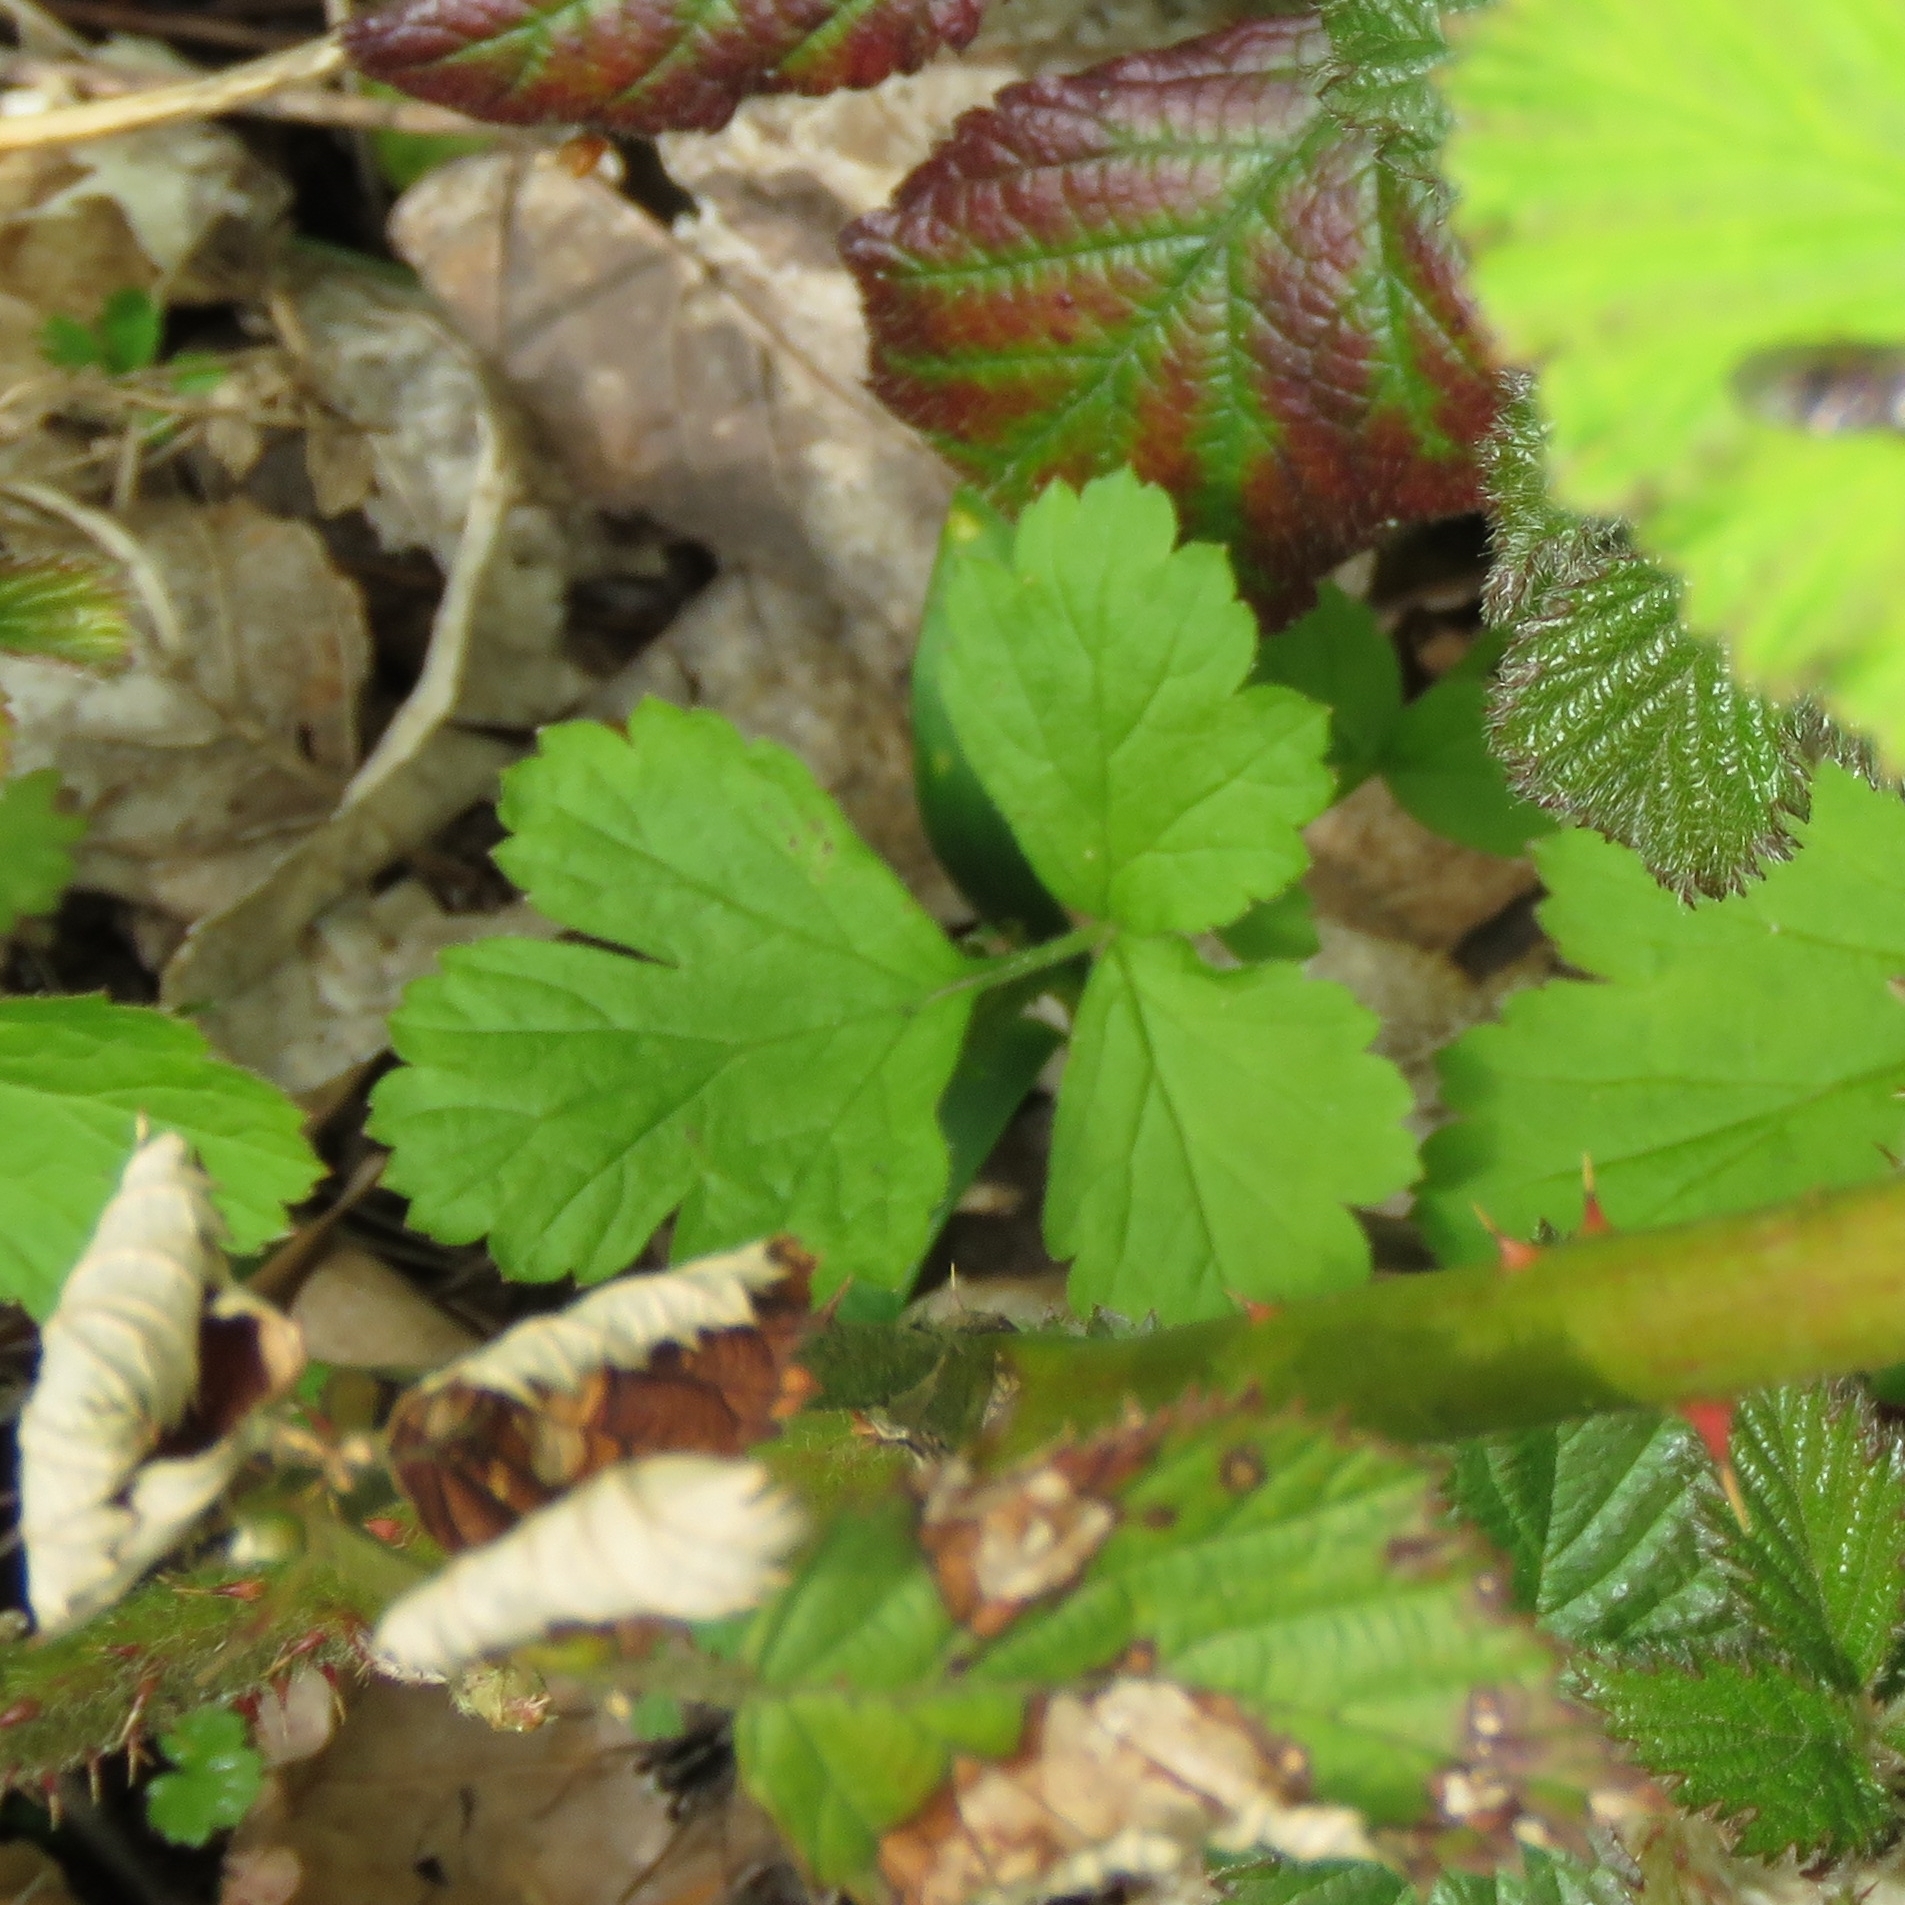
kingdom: Plantae
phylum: Tracheophyta
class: Magnoliopsida
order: Rosales
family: Rosaceae
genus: Geum
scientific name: Geum urbanum
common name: Wood avens
